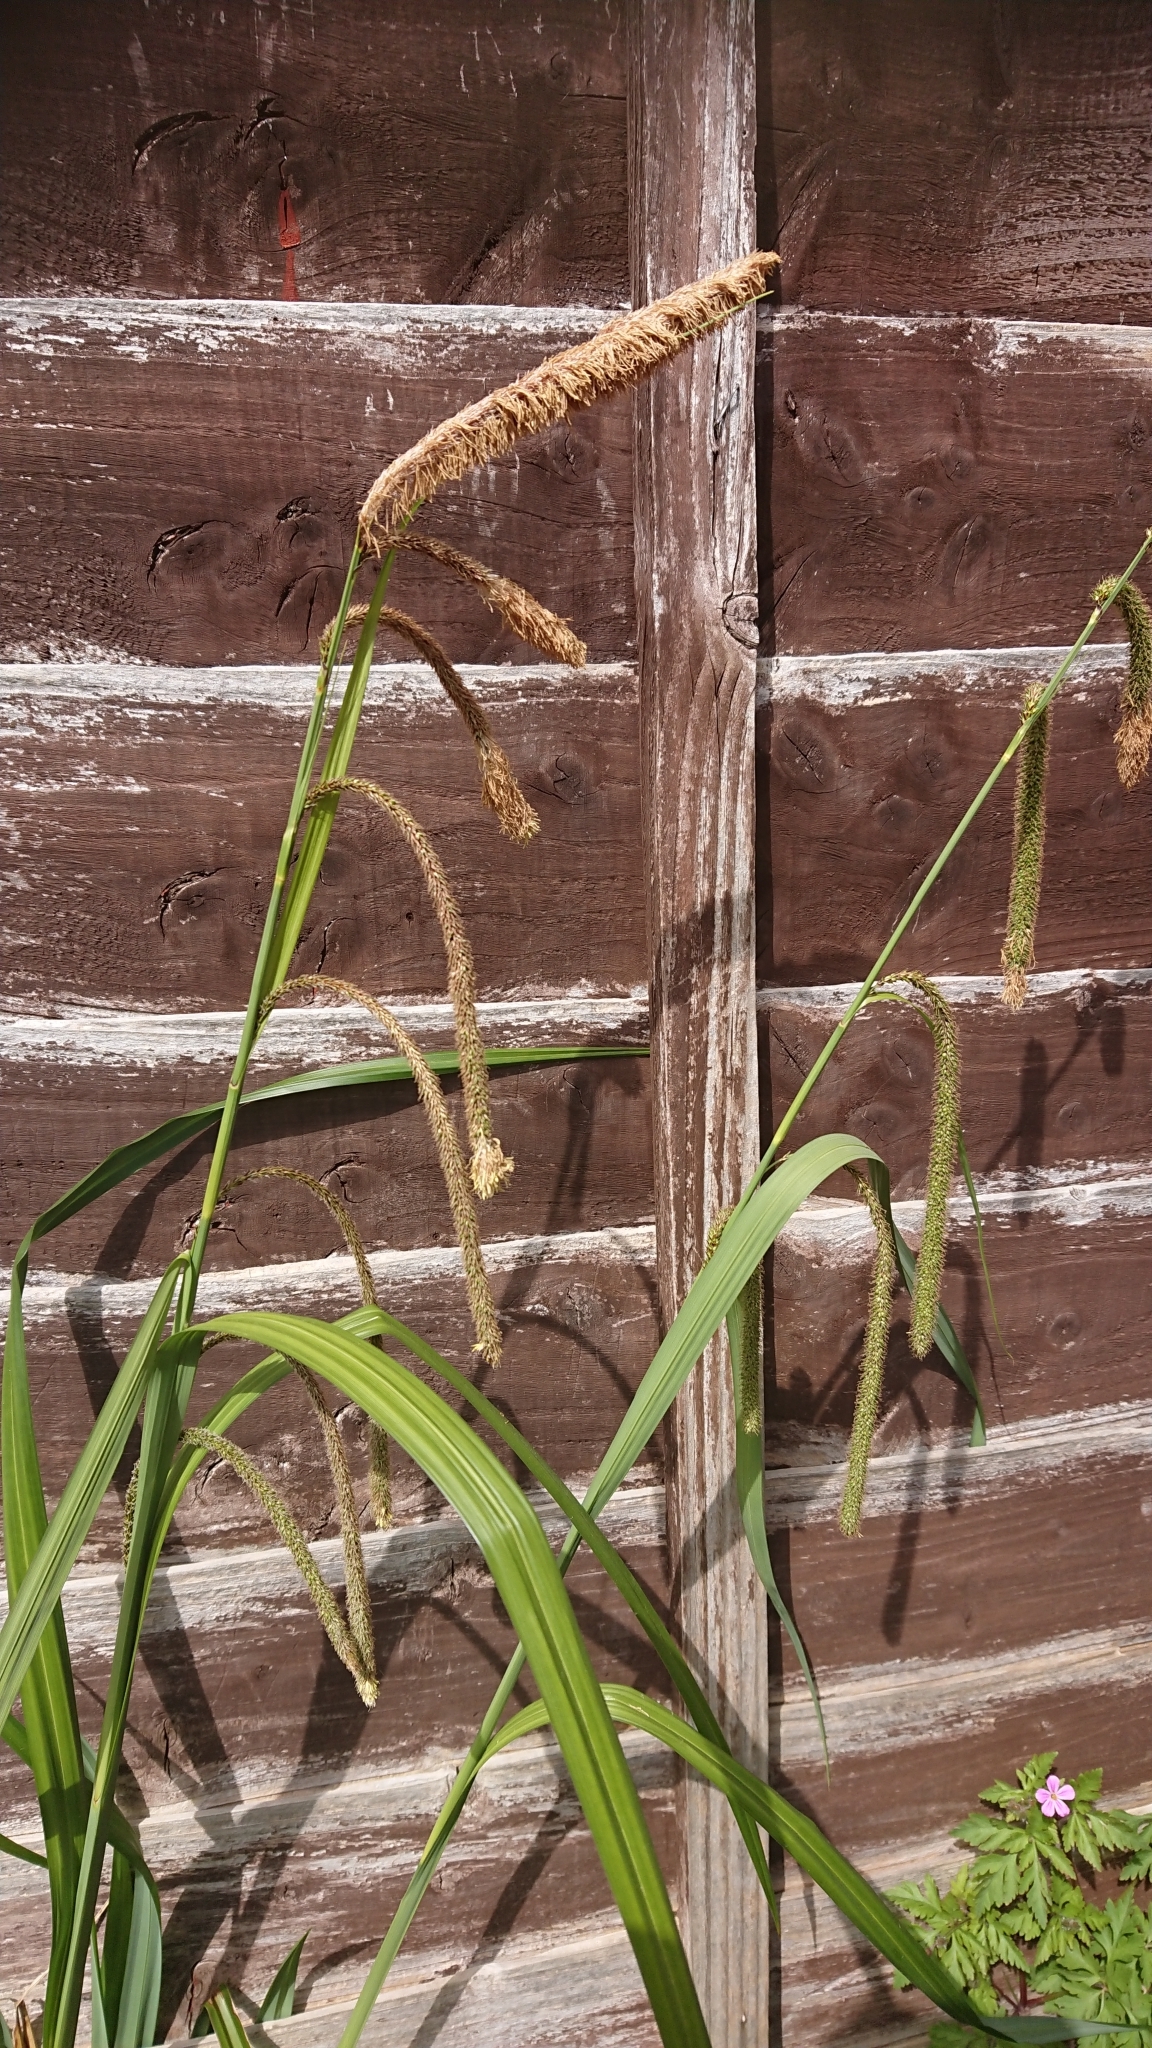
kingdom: Plantae
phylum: Tracheophyta
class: Liliopsida
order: Poales
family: Cyperaceae
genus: Carex
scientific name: Carex pendula
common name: Pendulous sedge
